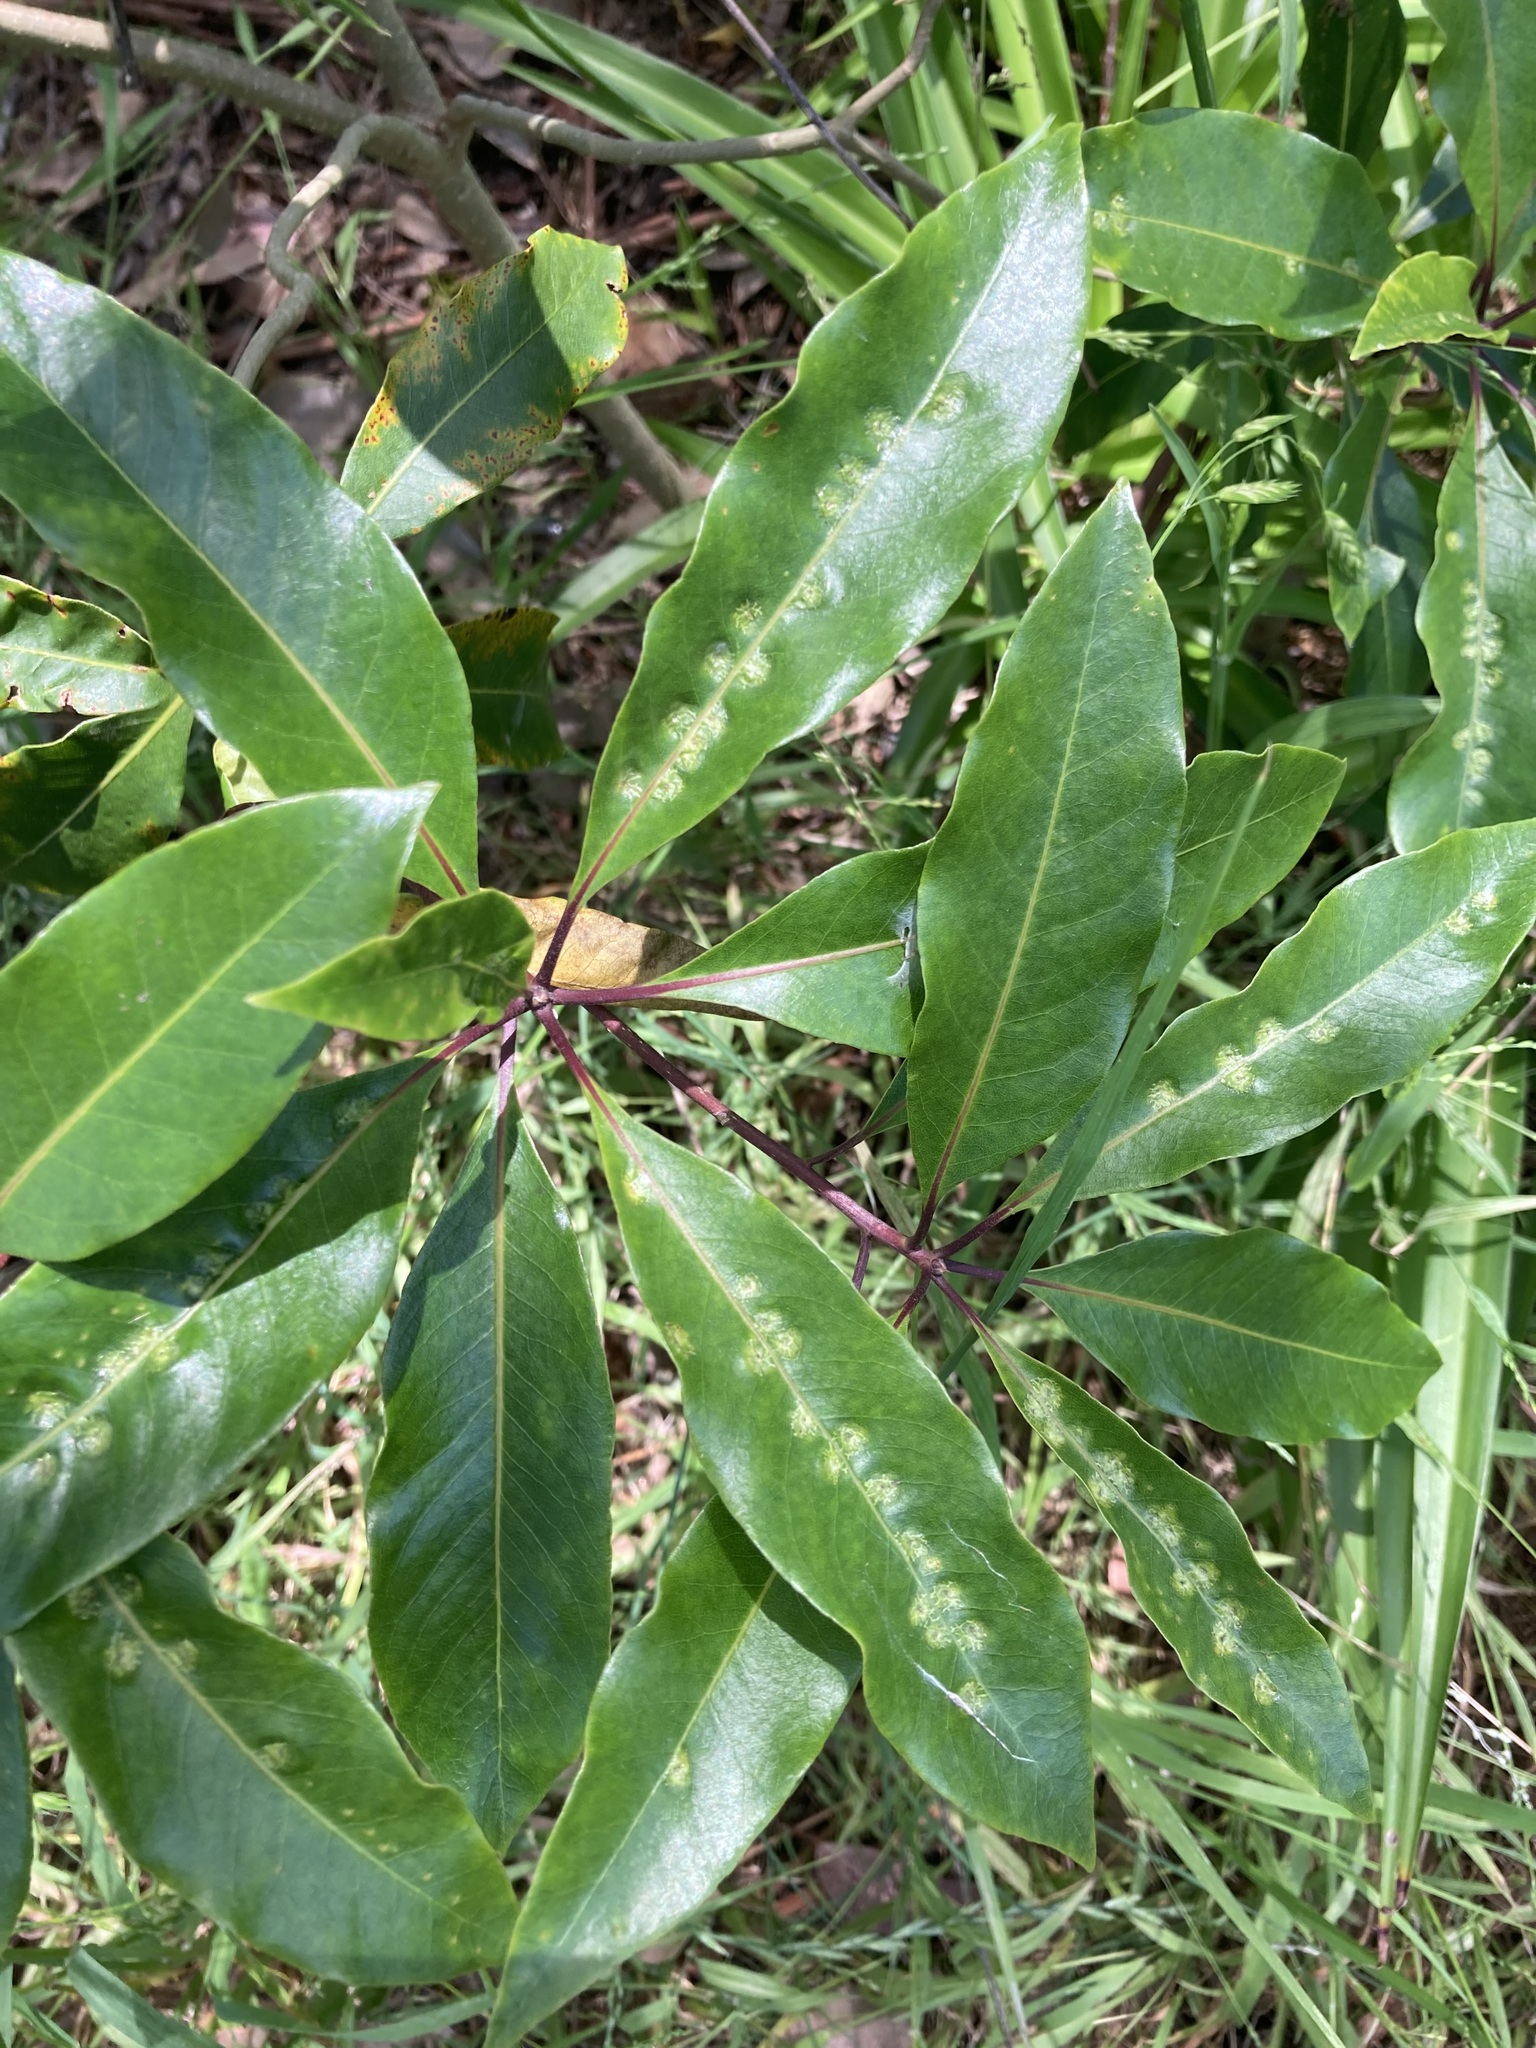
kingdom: Animalia
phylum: Arthropoda
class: Insecta
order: Diptera
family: Agromyzidae
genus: Phytoliriomyza
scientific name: Phytoliriomyza pittosporophylli
